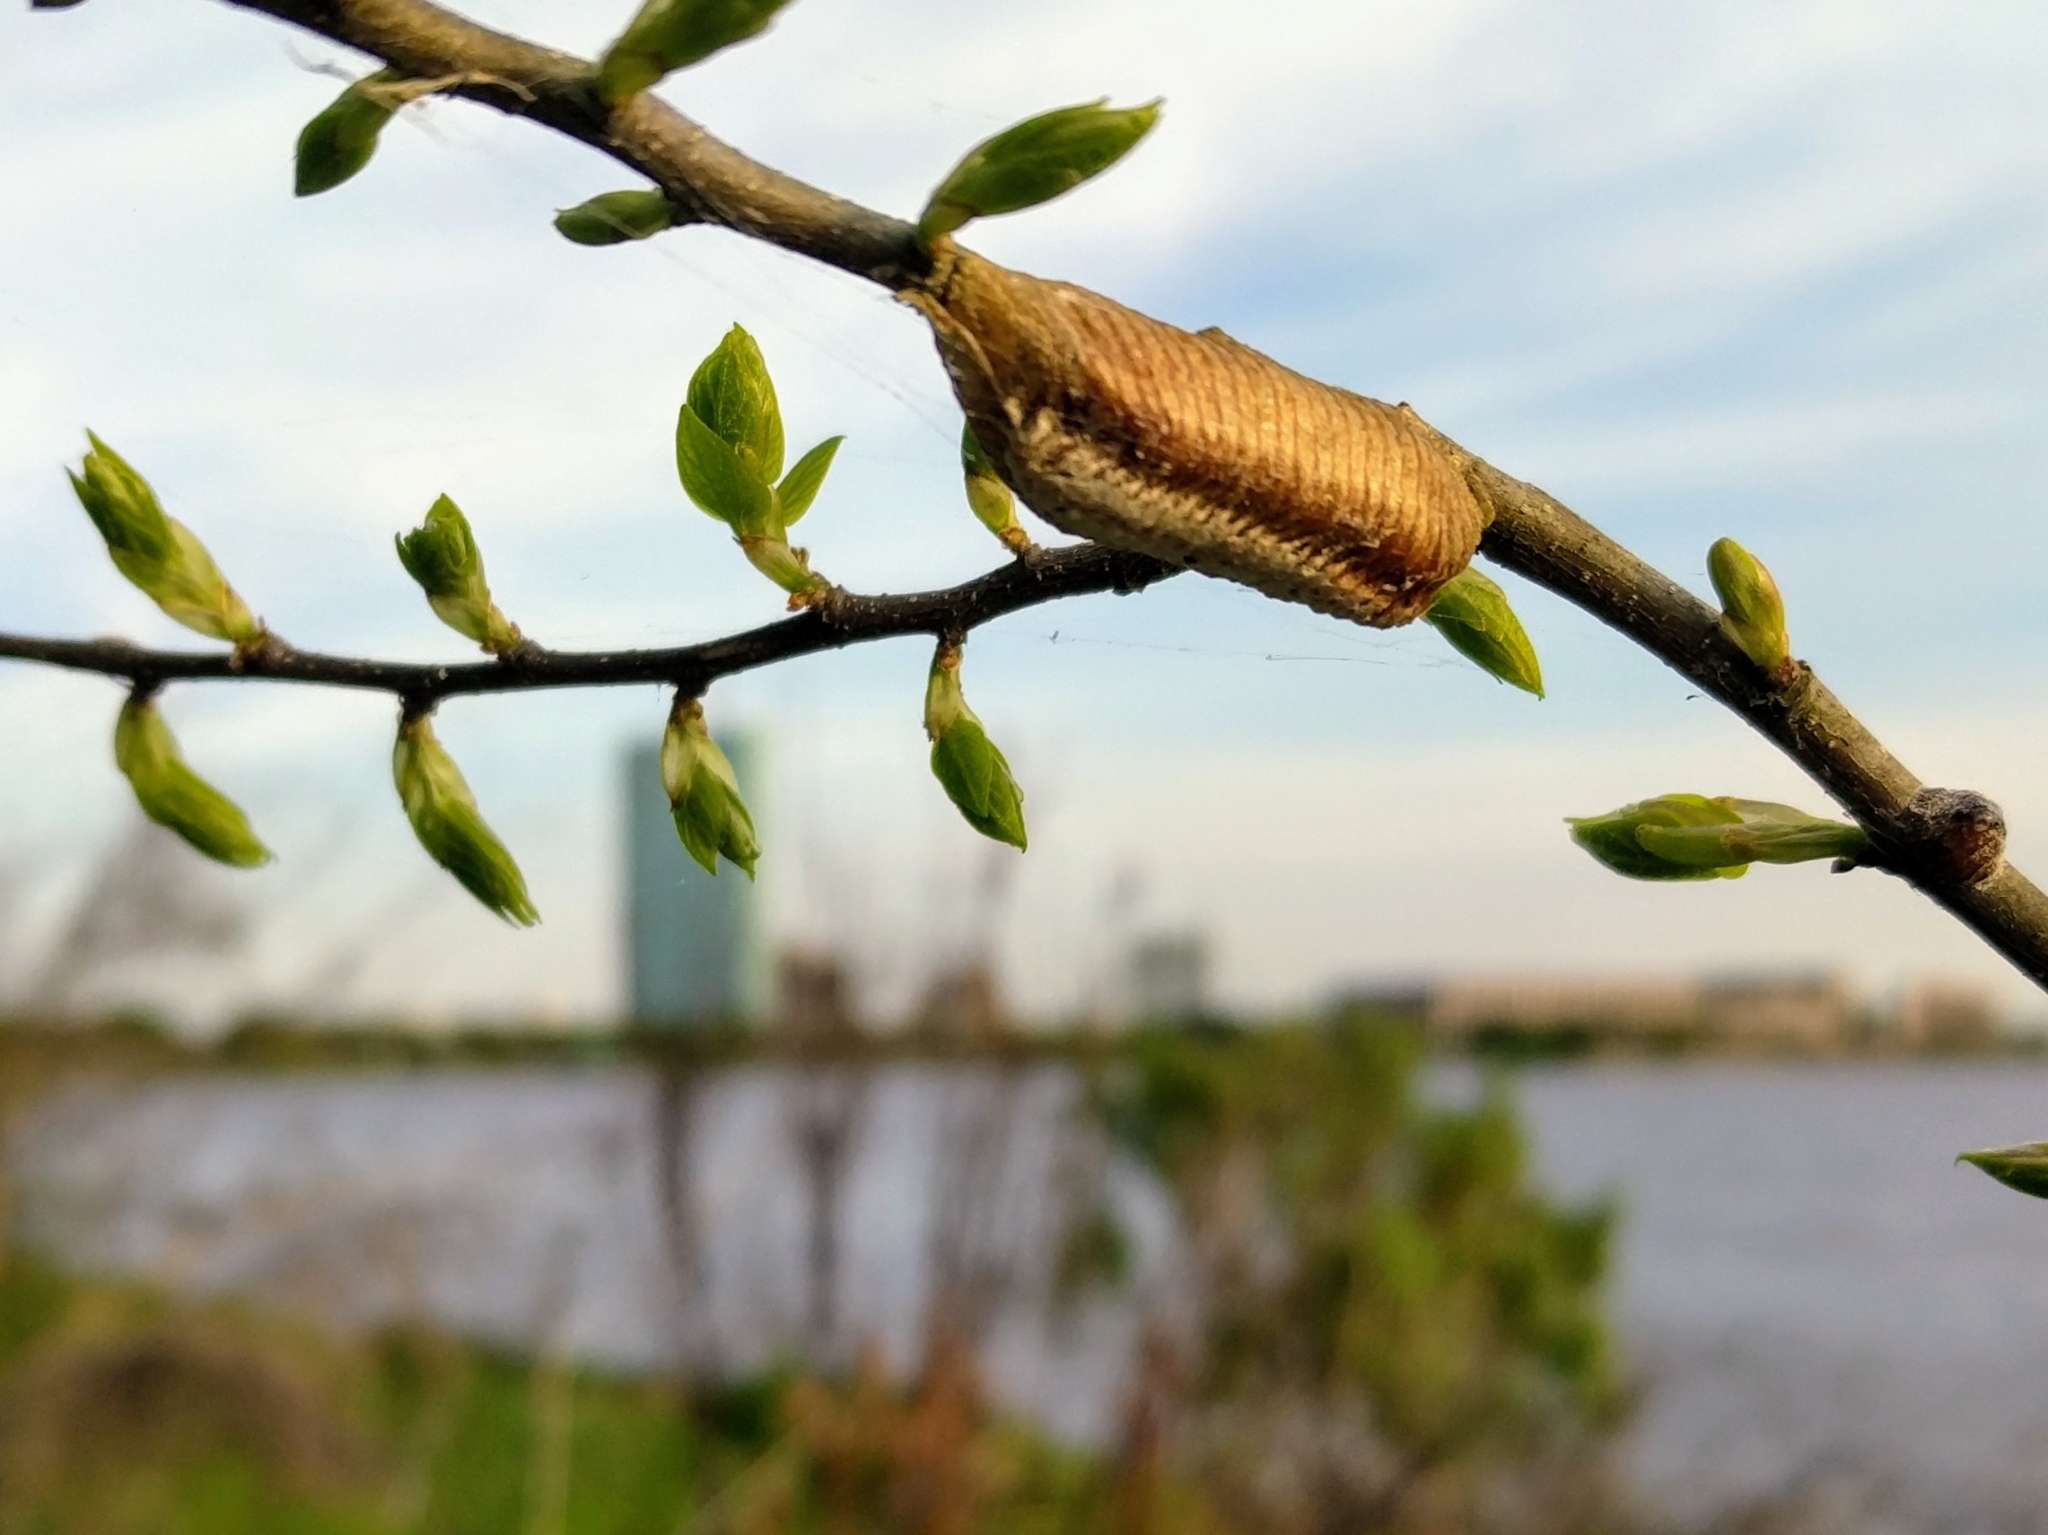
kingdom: Animalia
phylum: Arthropoda
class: Insecta
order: Mantodea
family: Mantidae
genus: Stagmomantis
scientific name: Stagmomantis carolina
